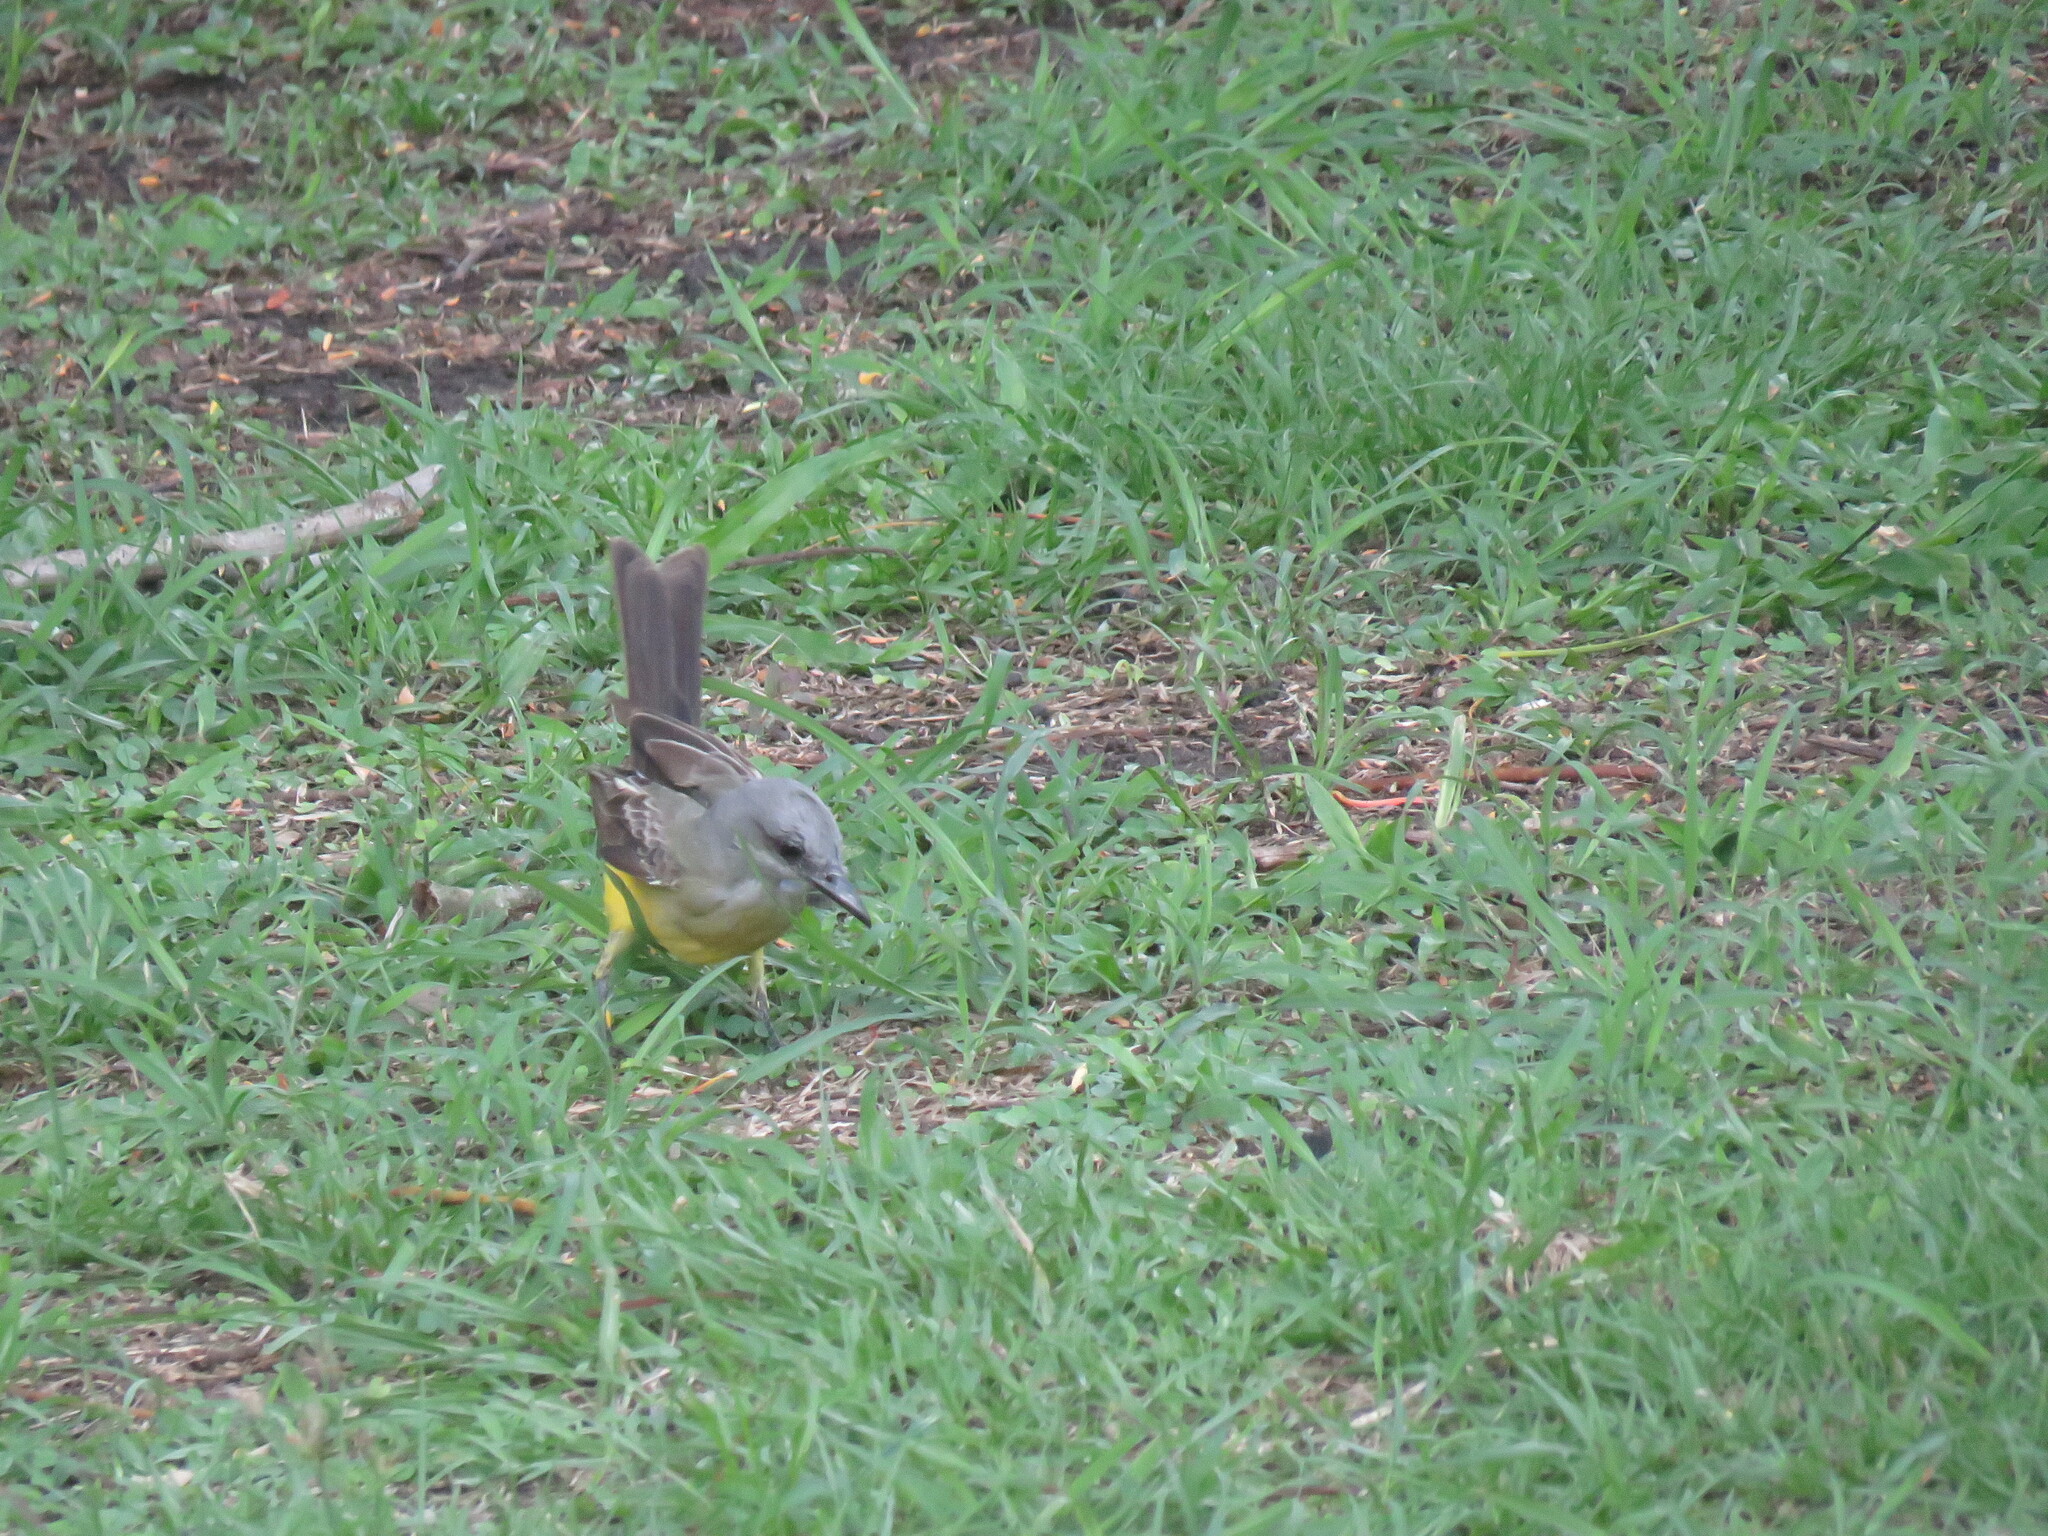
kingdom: Animalia
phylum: Chordata
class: Aves
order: Passeriformes
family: Tyrannidae
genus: Tyrannus
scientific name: Tyrannus melancholicus
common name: Tropical kingbird
